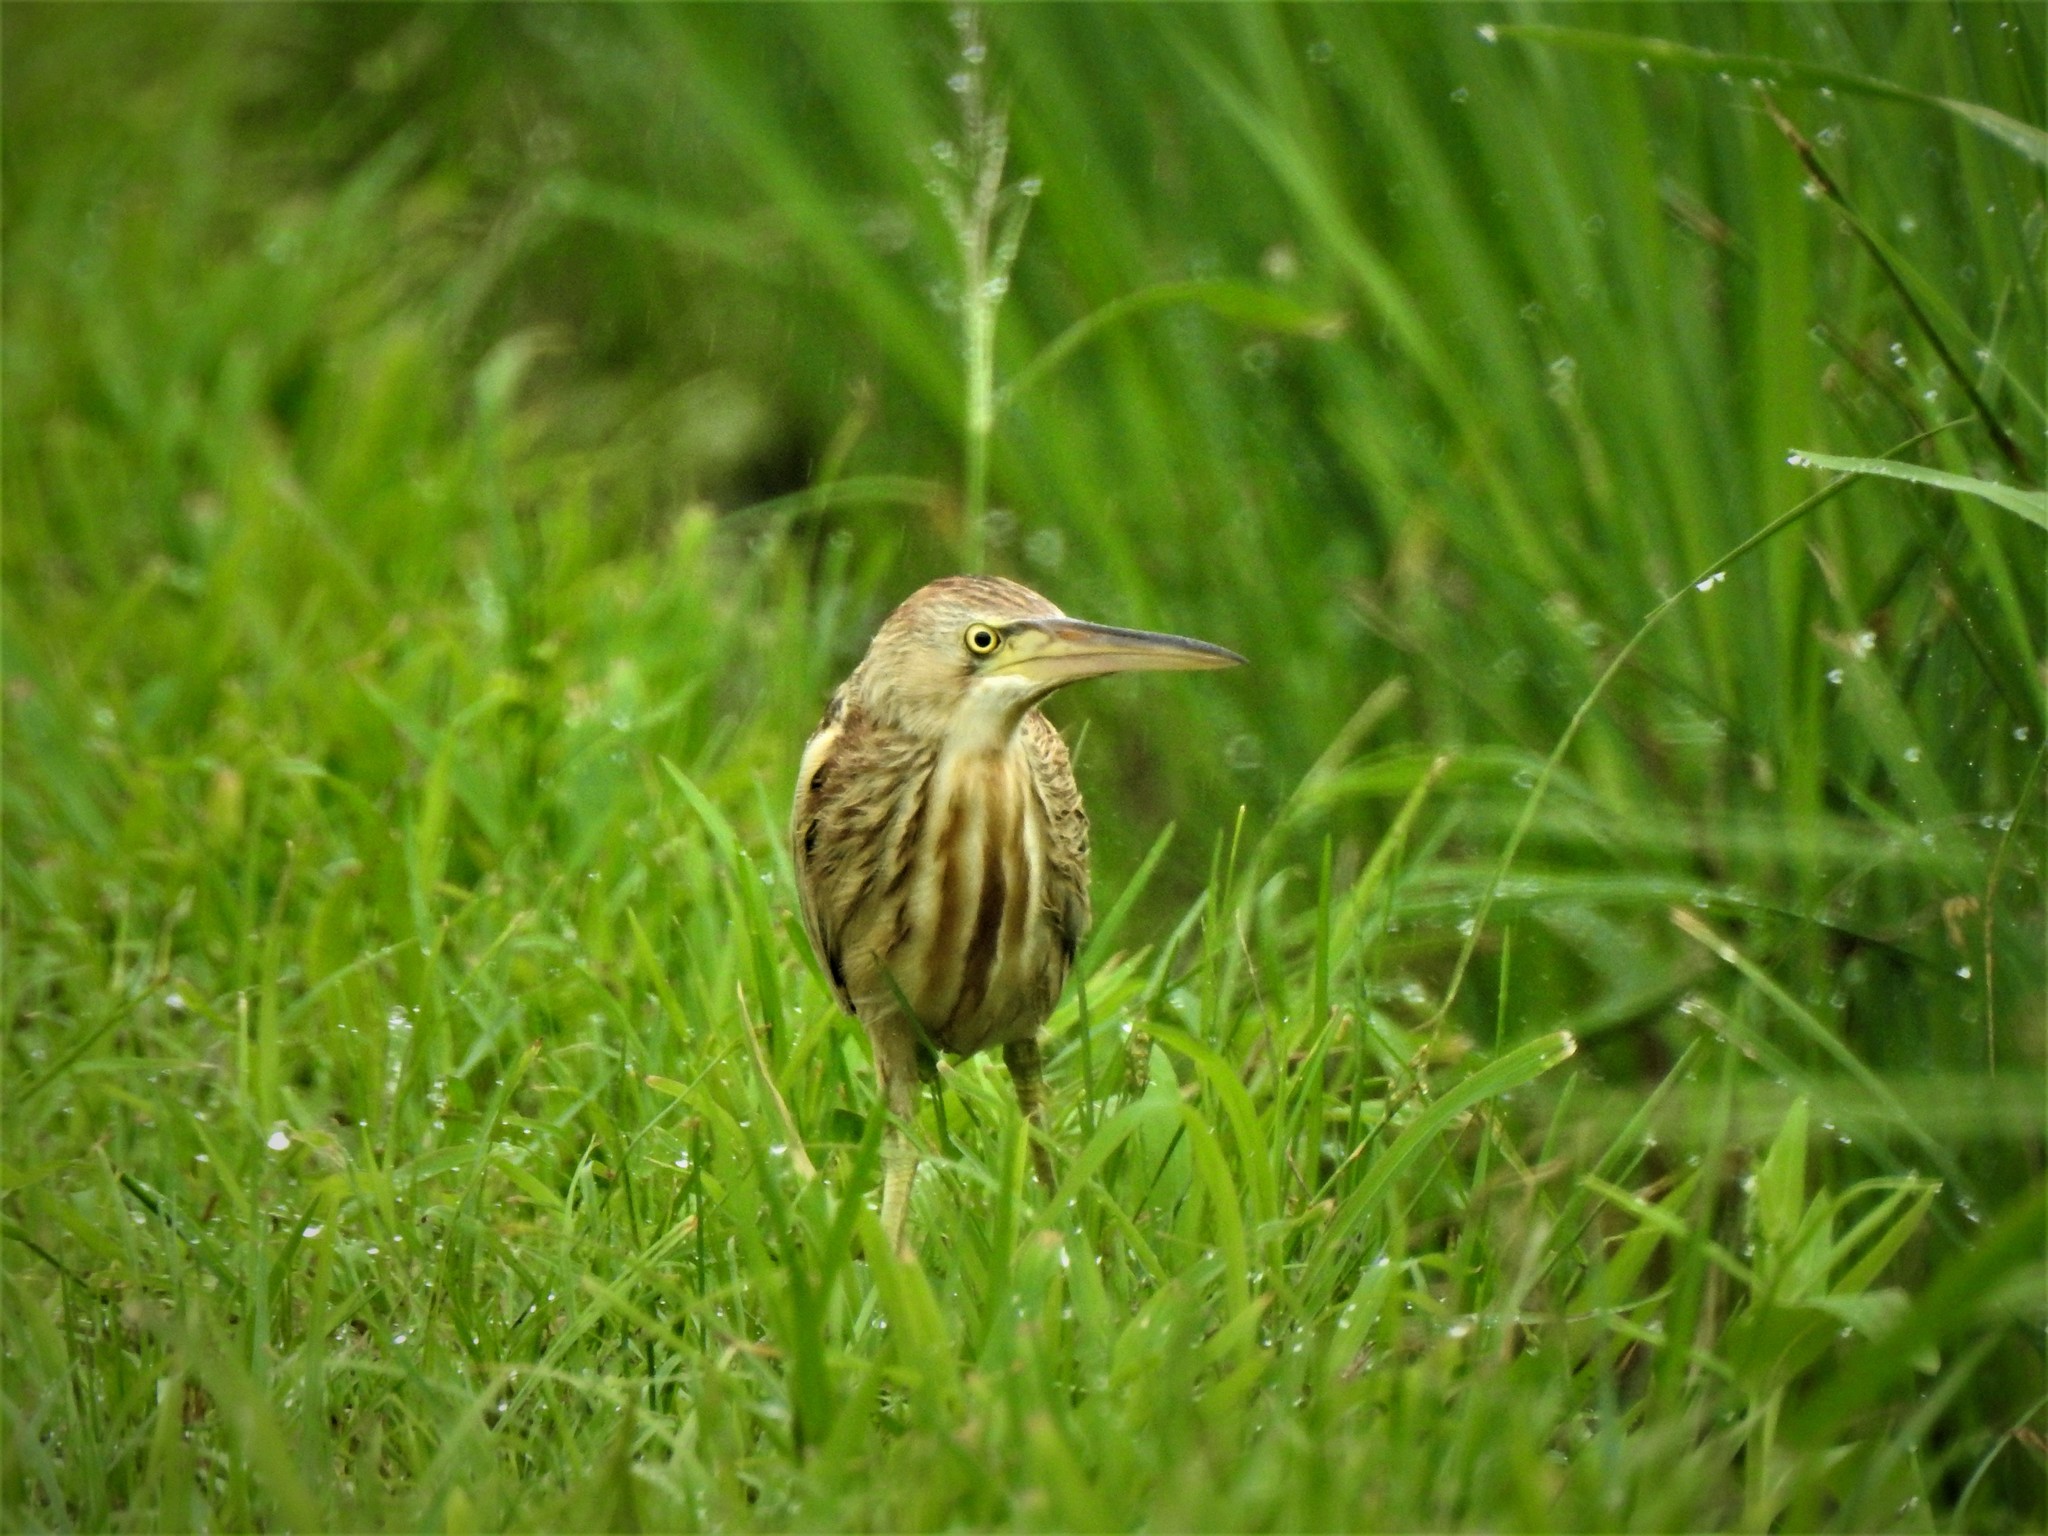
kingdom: Animalia
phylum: Chordata
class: Aves
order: Pelecaniformes
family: Ardeidae
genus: Ixobrychus
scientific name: Ixobrychus sinensis
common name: Yellow bittern
